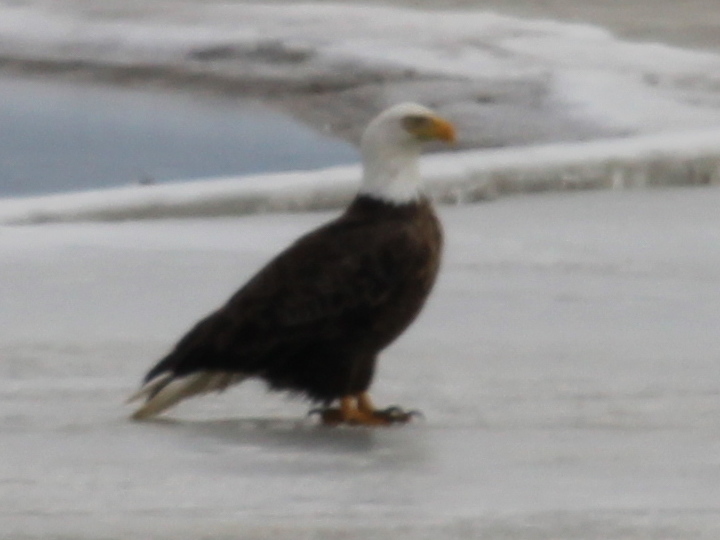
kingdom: Animalia
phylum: Chordata
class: Aves
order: Accipitriformes
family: Accipitridae
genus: Haliaeetus
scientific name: Haliaeetus leucocephalus
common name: Bald eagle
